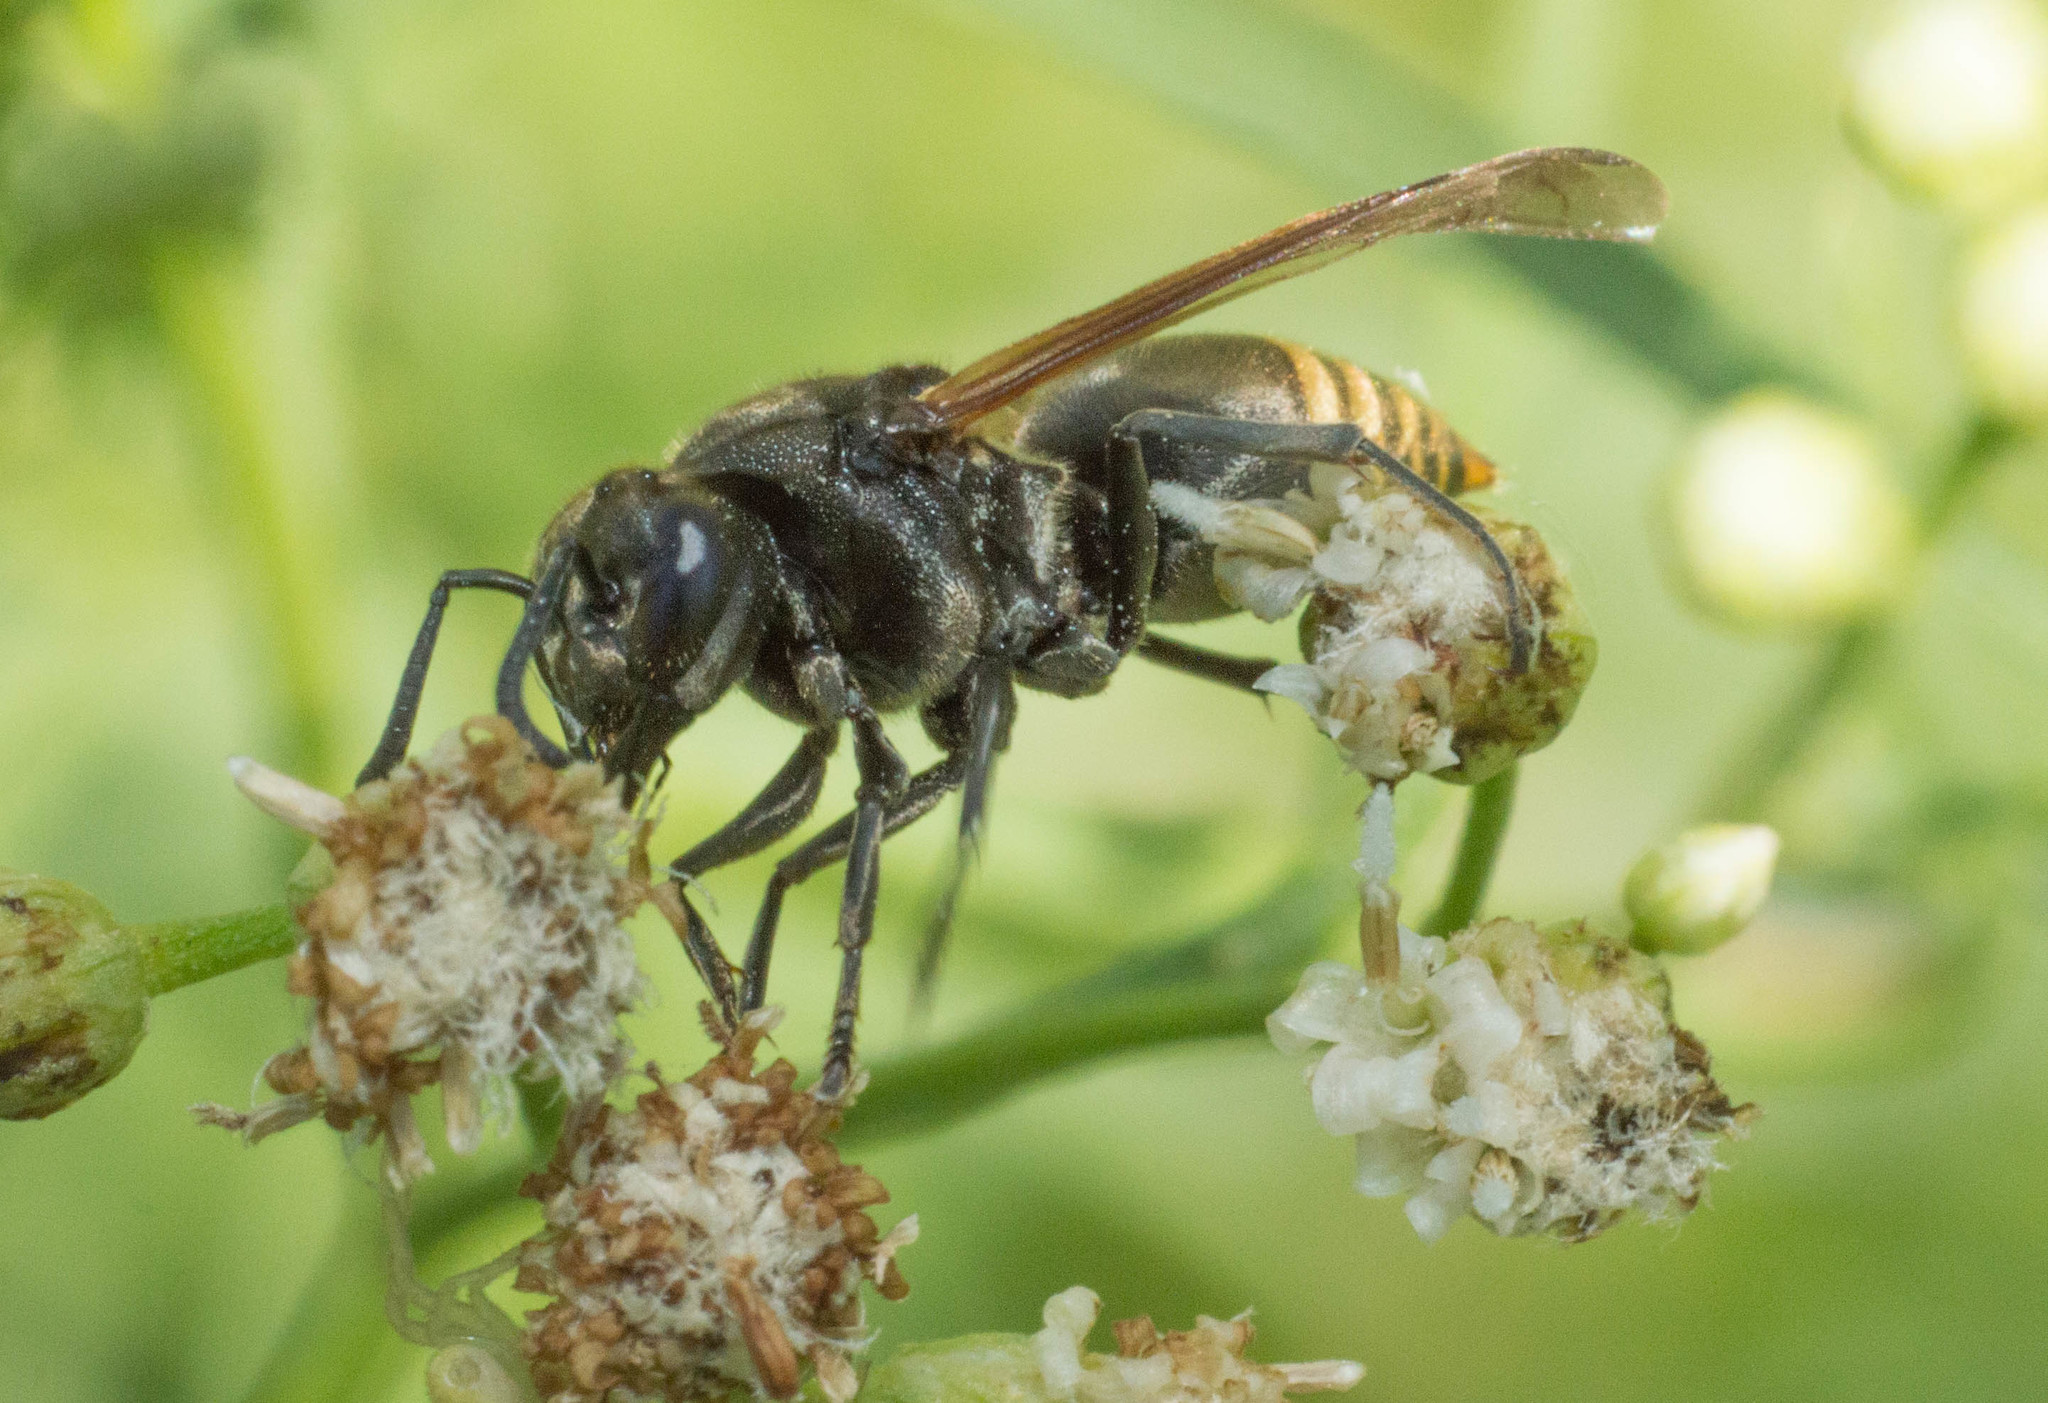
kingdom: Animalia
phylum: Arthropoda
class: Insecta
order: Hymenoptera
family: Vespidae
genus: Brachygastra
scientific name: Brachygastra lecheguana
